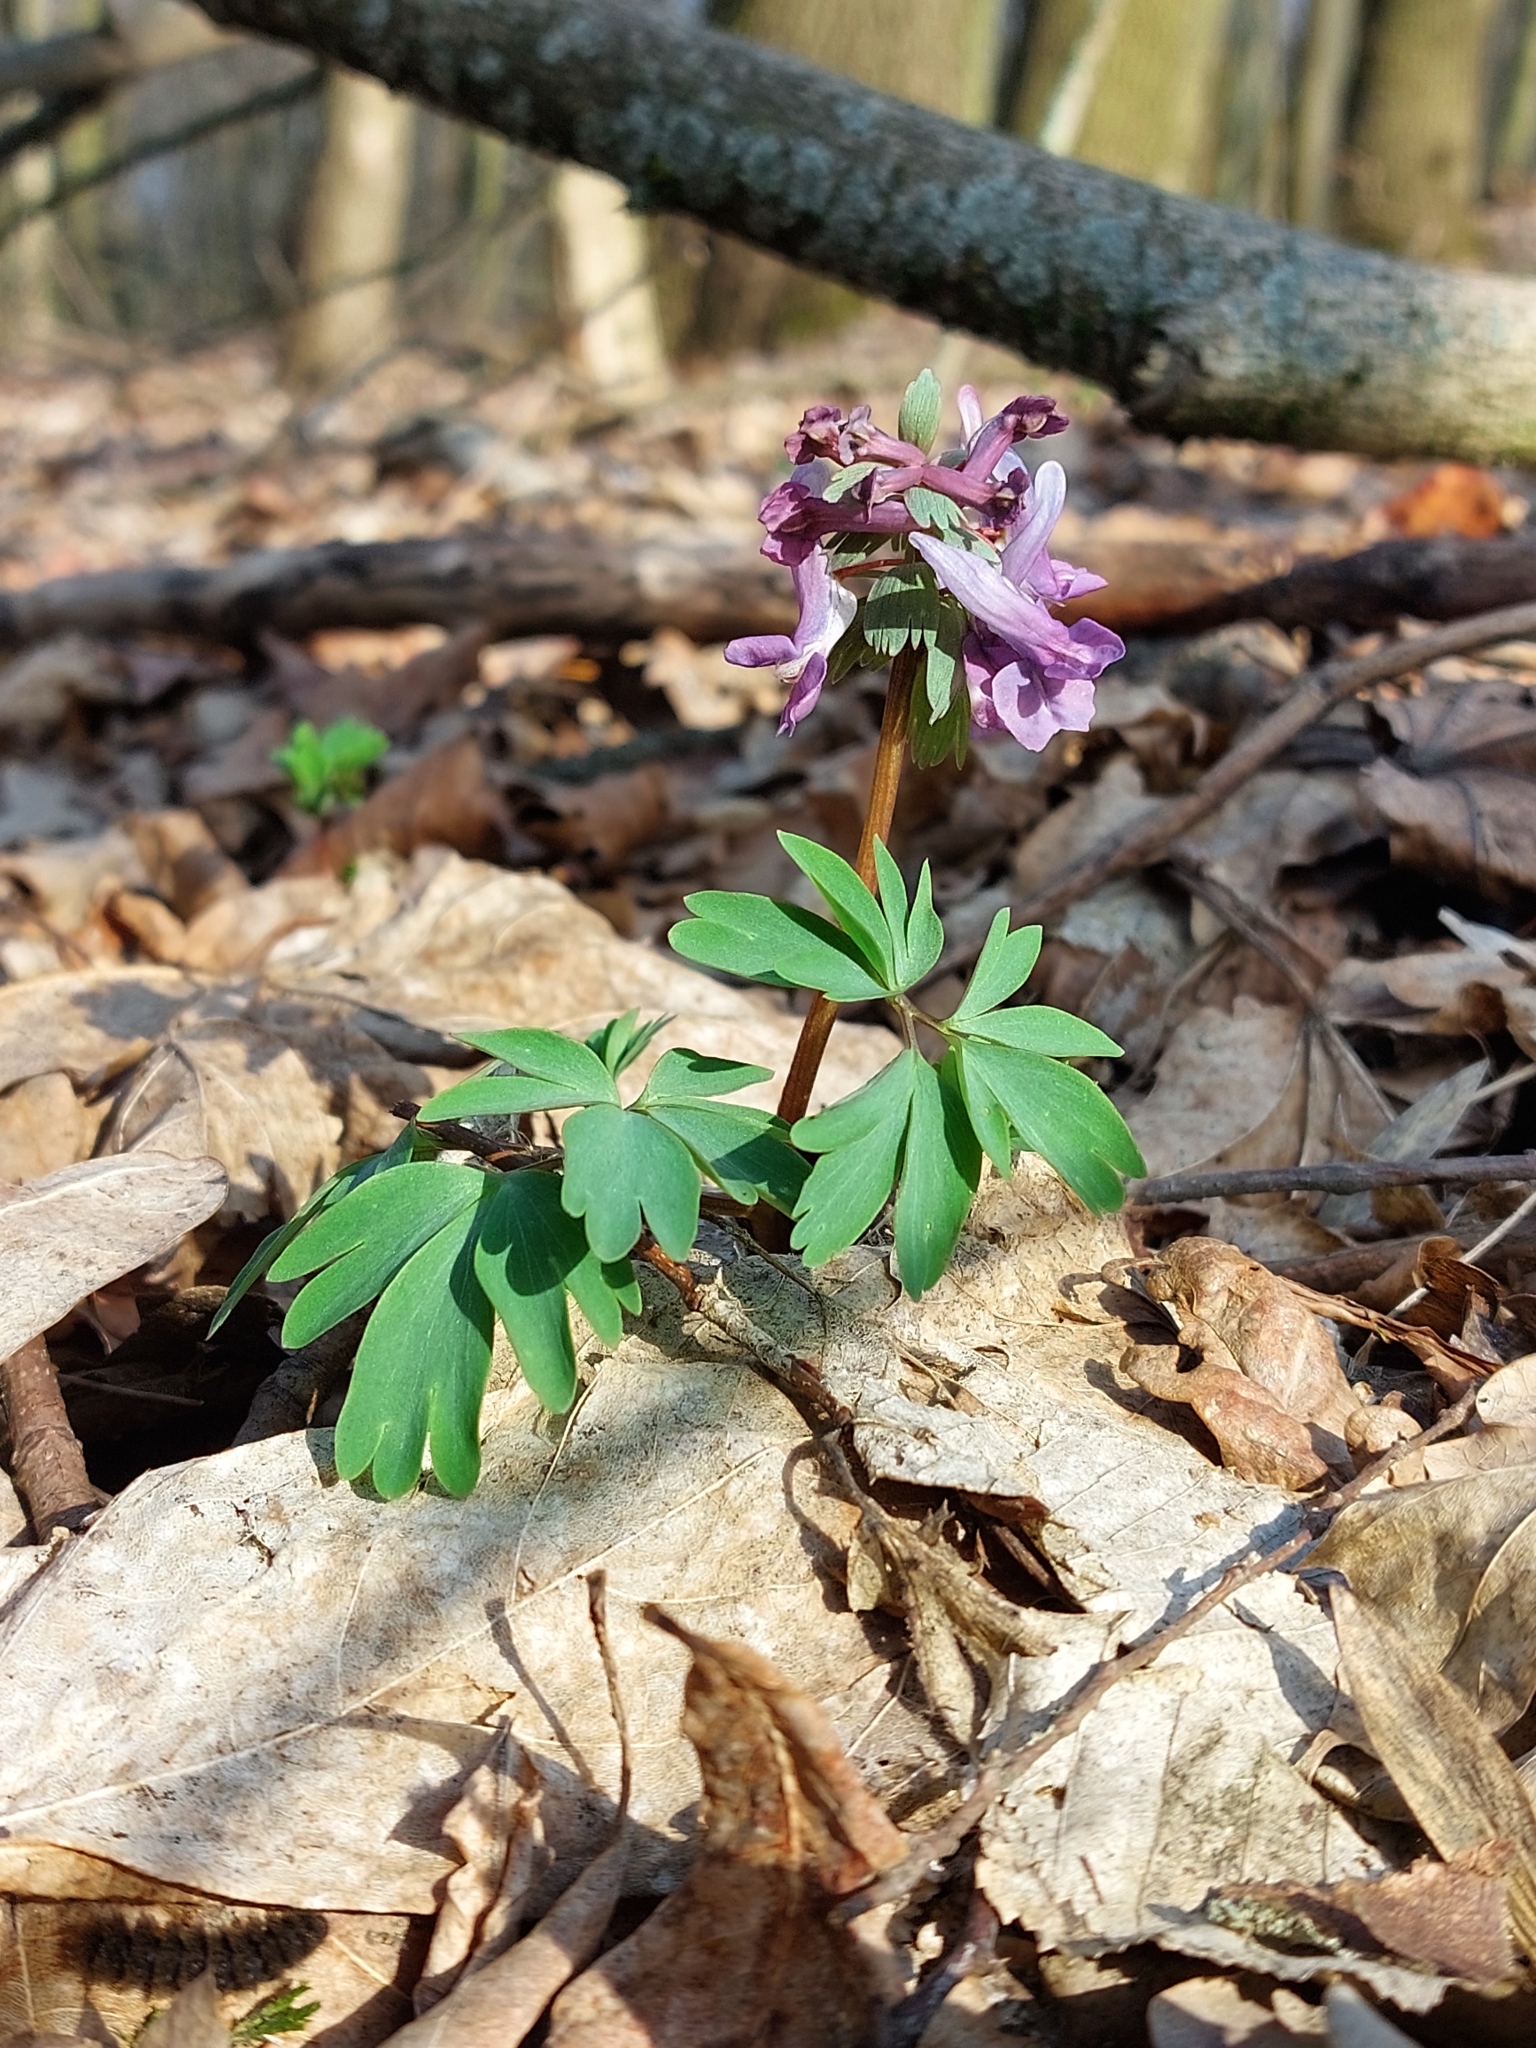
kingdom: Plantae
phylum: Tracheophyta
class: Magnoliopsida
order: Ranunculales
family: Papaveraceae
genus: Corydalis
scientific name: Corydalis solida
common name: Bird-in-a-bush
